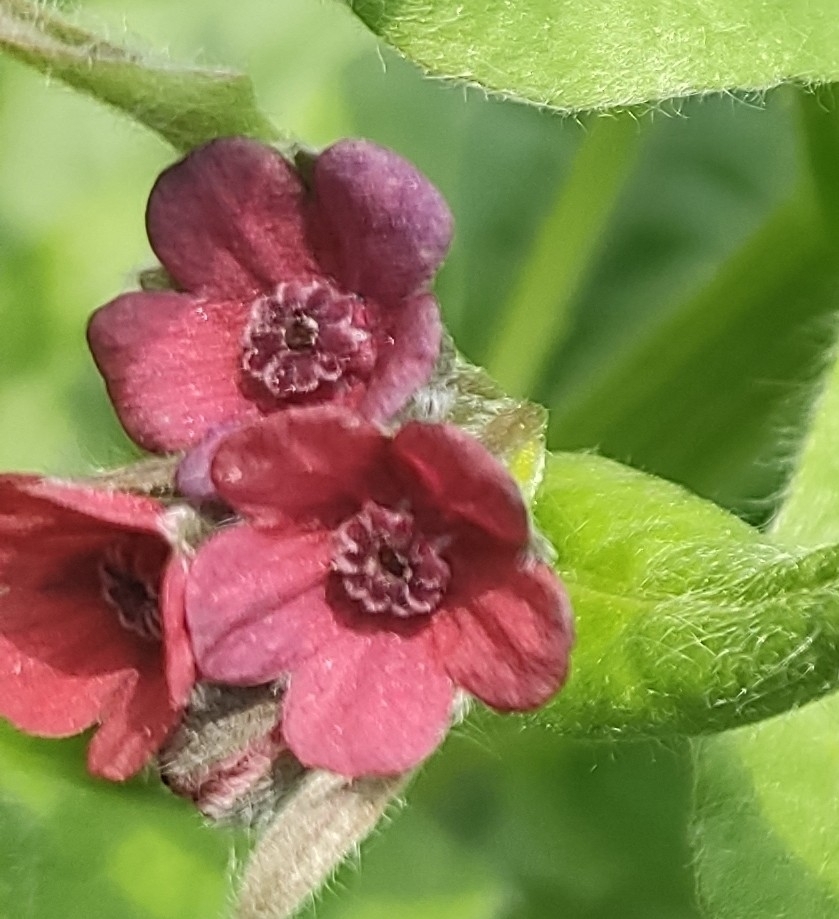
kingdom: Plantae
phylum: Tracheophyta
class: Magnoliopsida
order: Boraginales
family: Boraginaceae
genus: Cynoglossum
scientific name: Cynoglossum officinale
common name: Hound's-tongue
